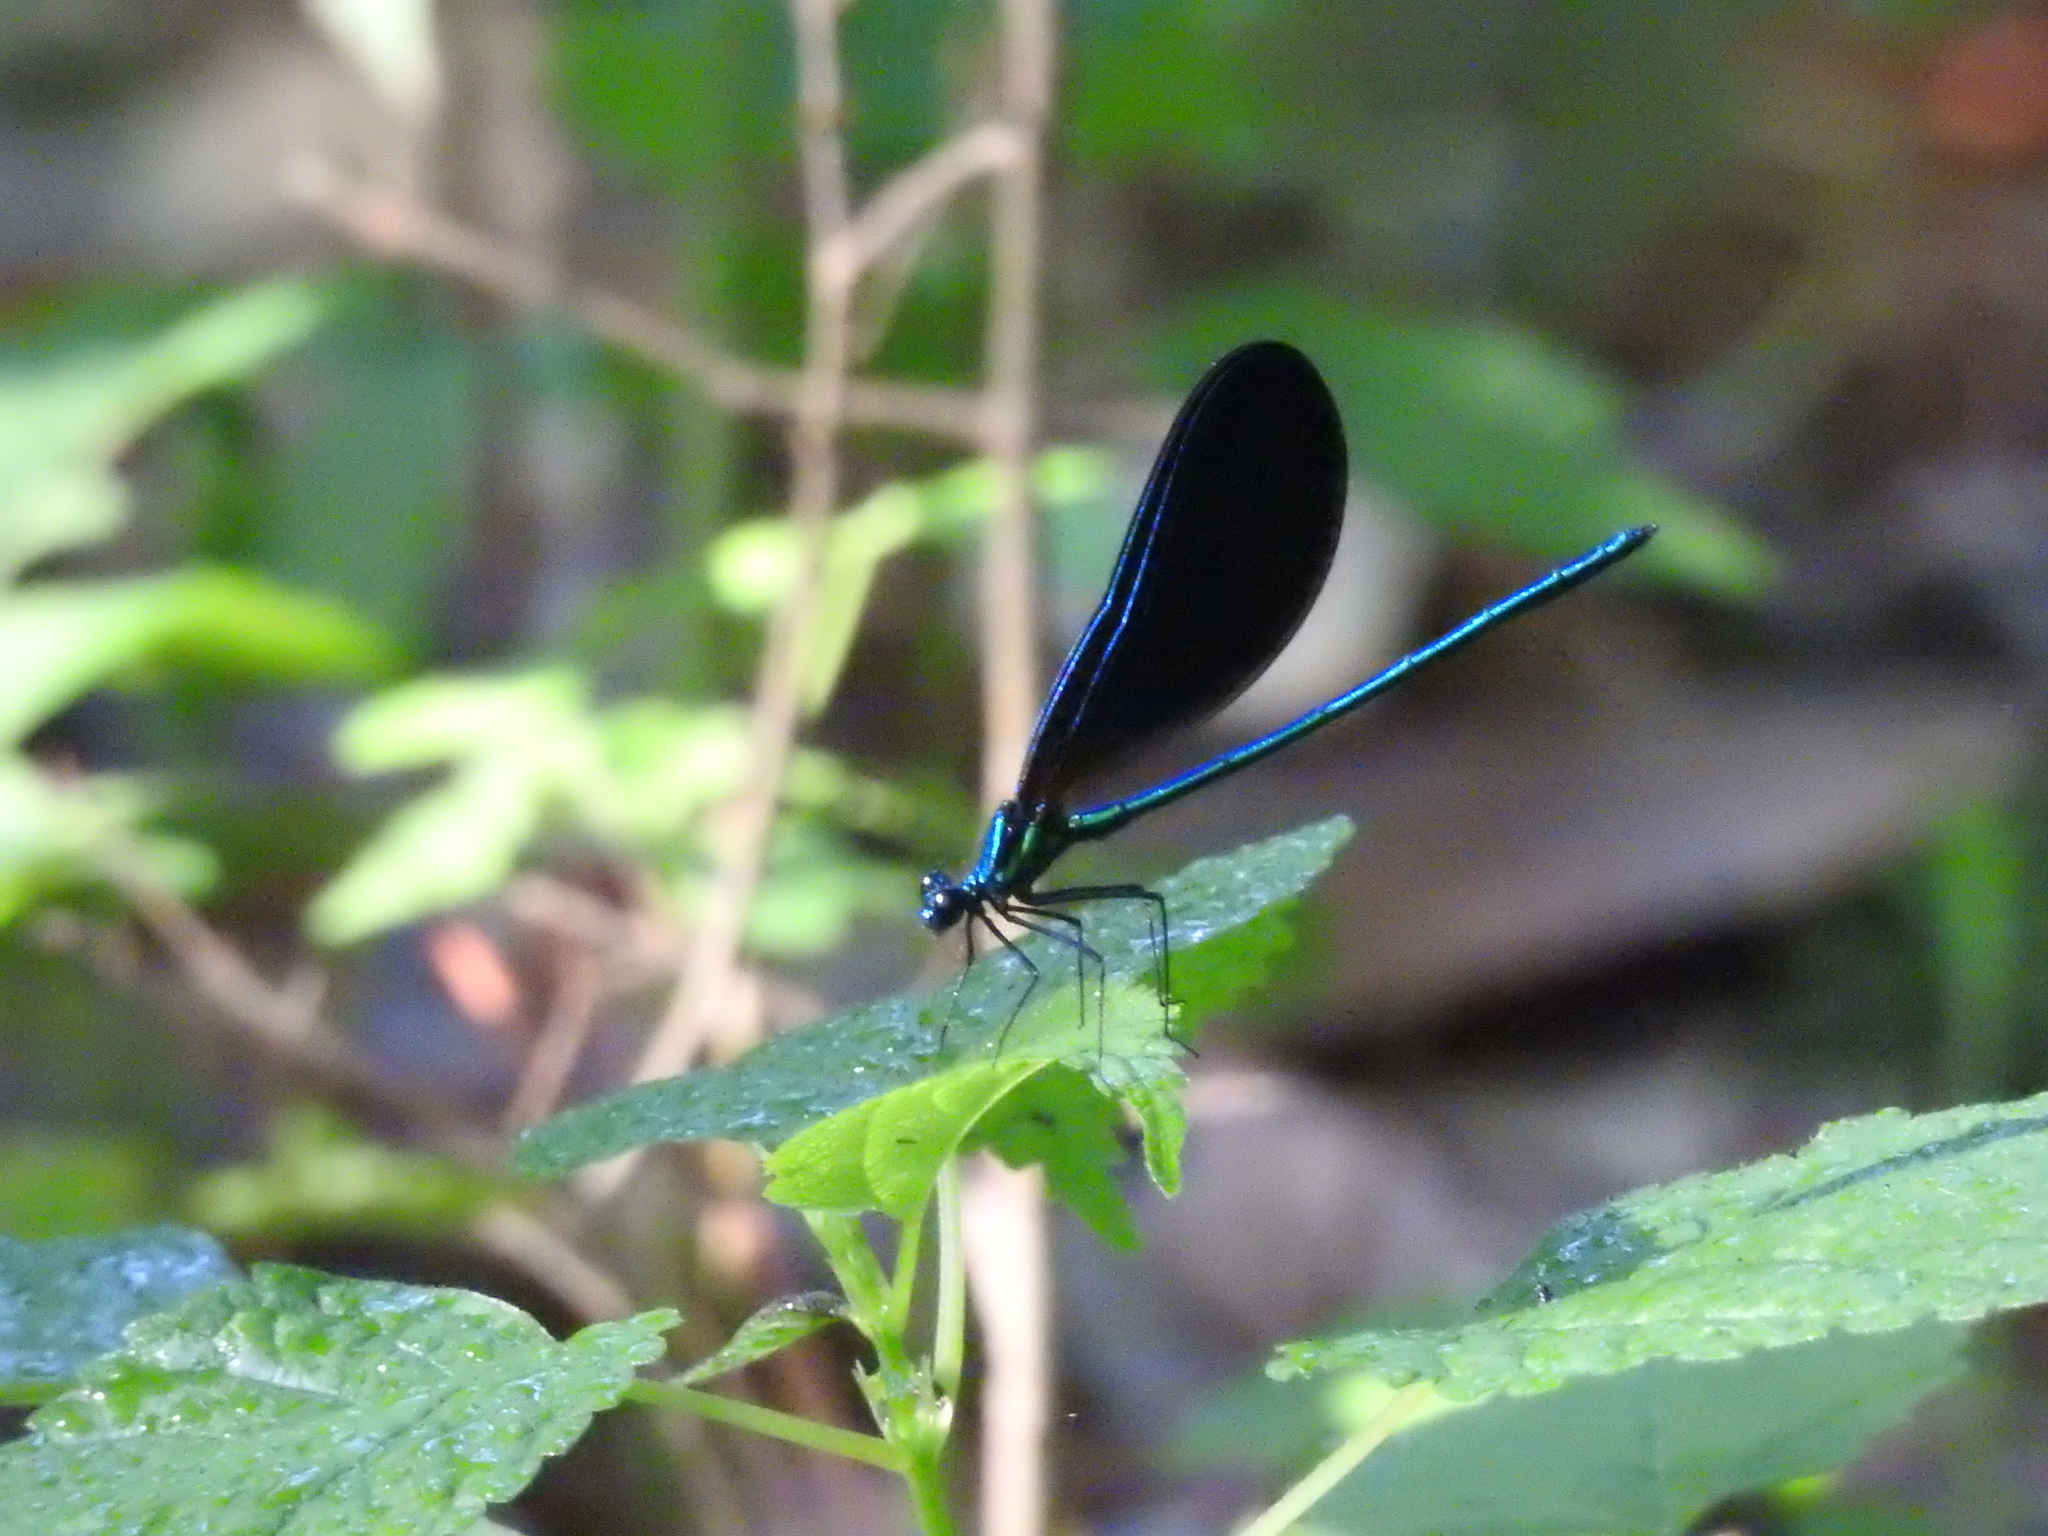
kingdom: Animalia
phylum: Arthropoda
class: Insecta
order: Odonata
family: Calopterygidae
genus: Calopteryx
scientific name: Calopteryx maculata
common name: Ebony jewelwing
